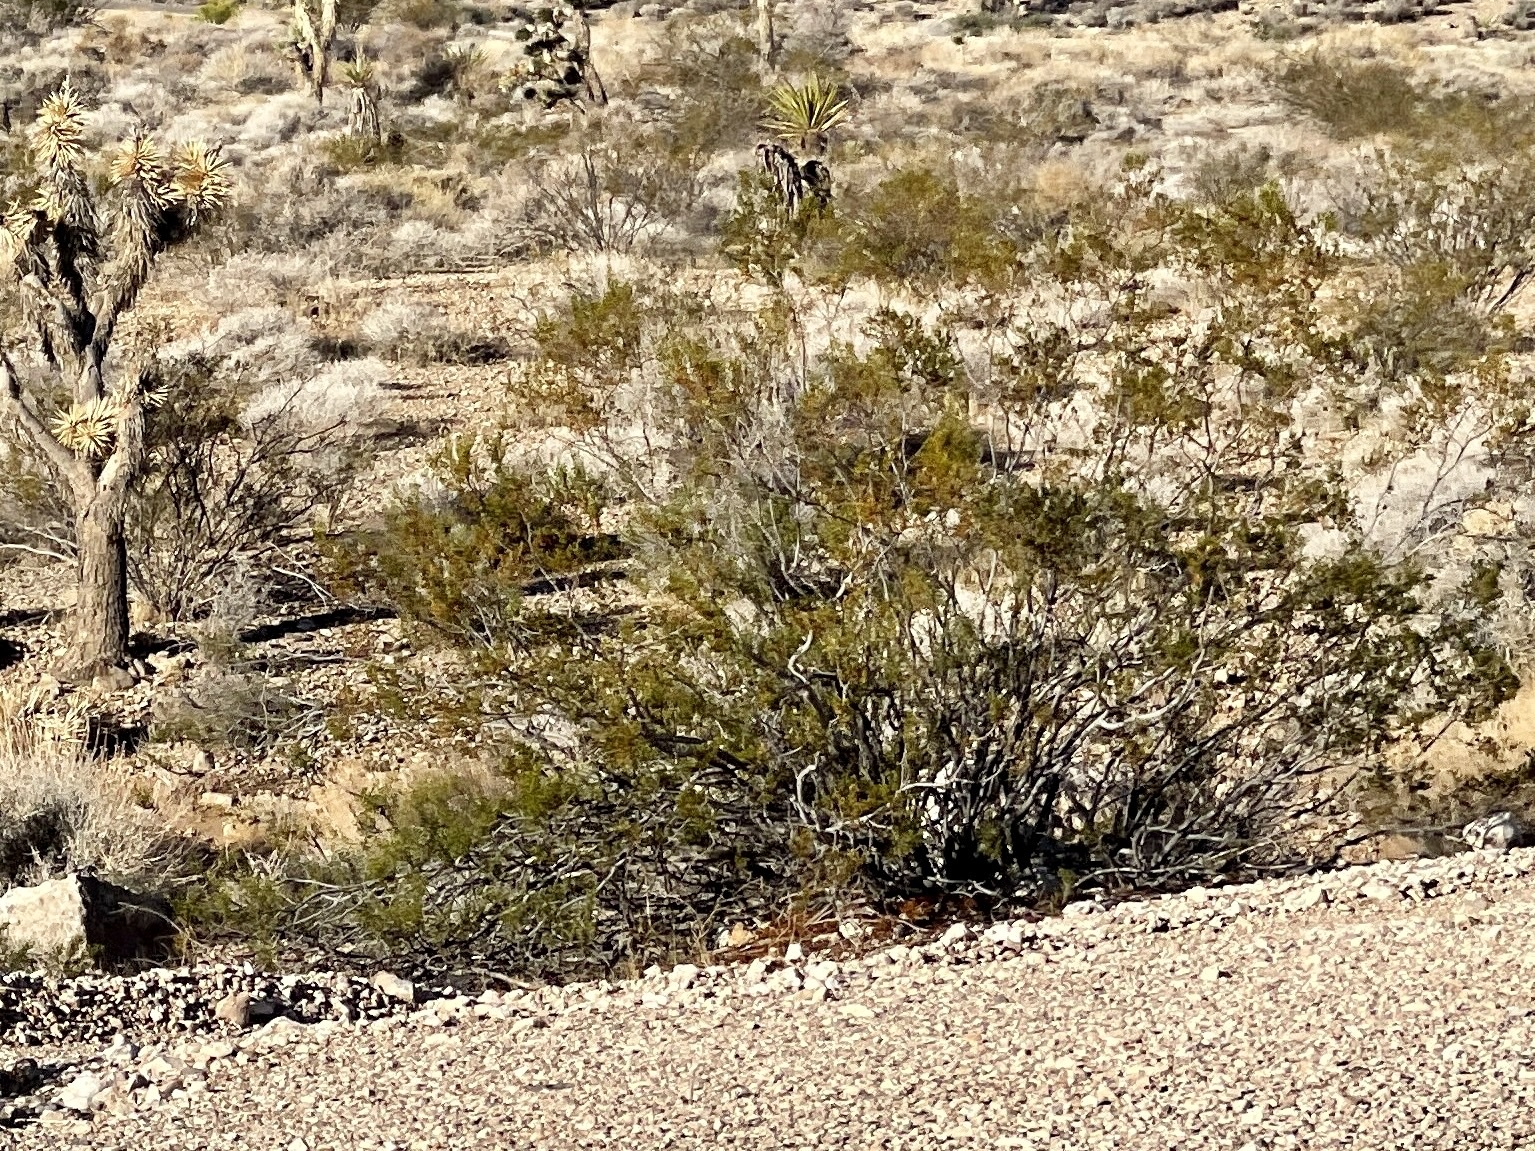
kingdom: Plantae
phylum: Tracheophyta
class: Magnoliopsida
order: Zygophyllales
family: Zygophyllaceae
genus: Larrea
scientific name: Larrea tridentata
